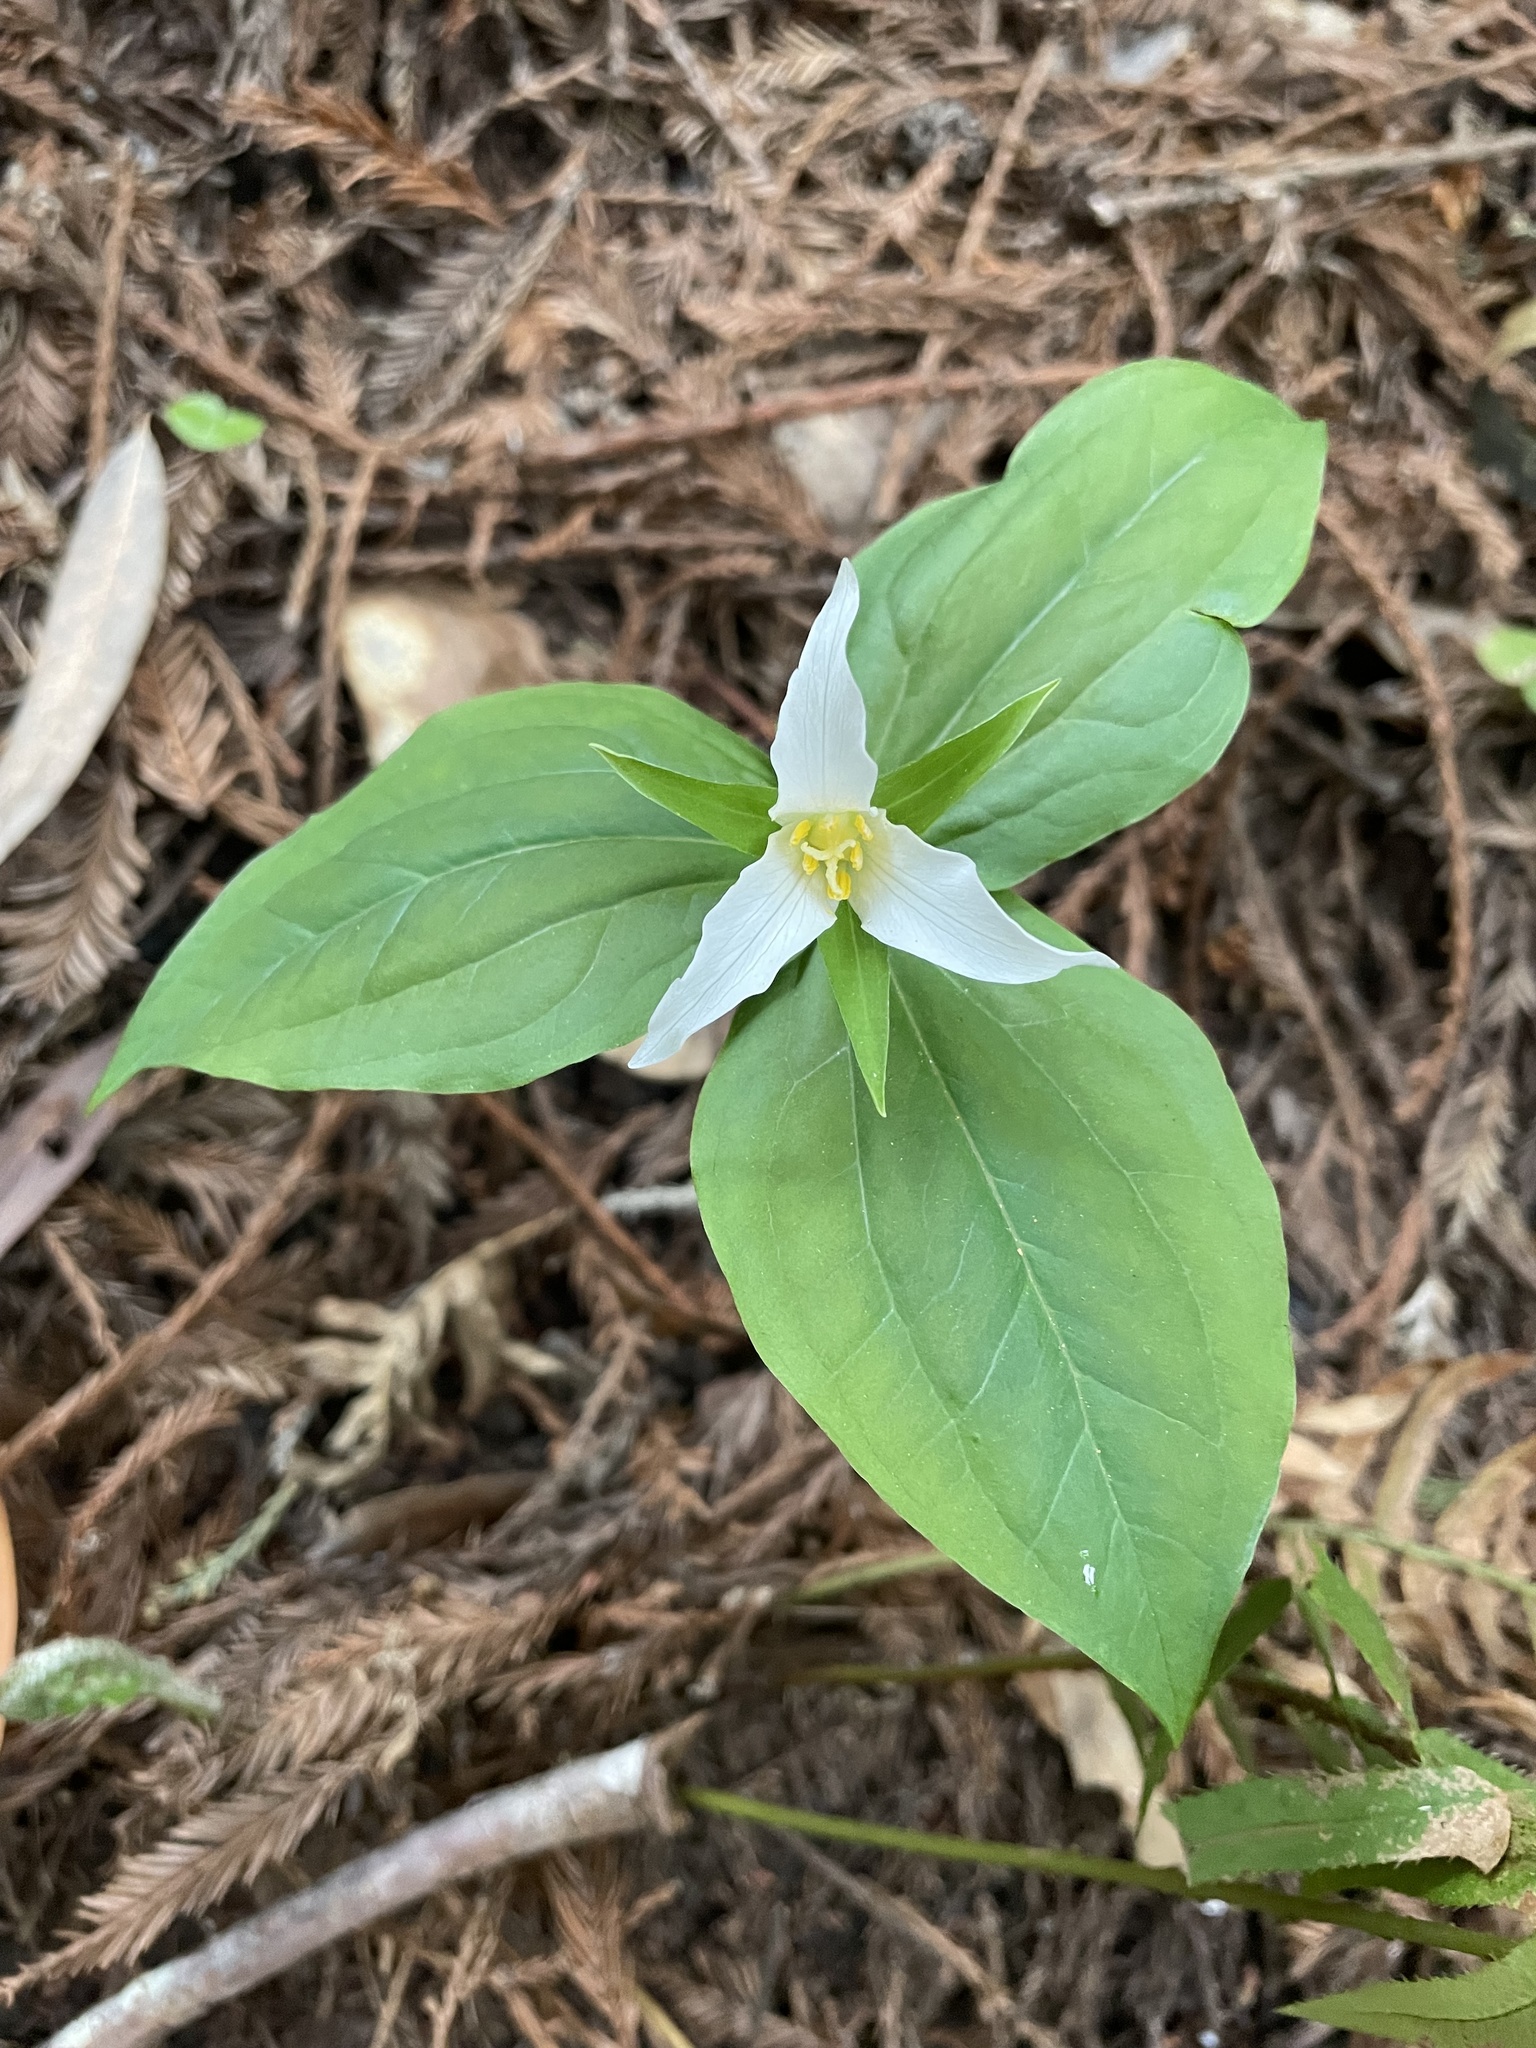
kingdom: Plantae
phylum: Tracheophyta
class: Liliopsida
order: Liliales
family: Melanthiaceae
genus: Trillium
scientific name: Trillium ovatum
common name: Pacific trillium
